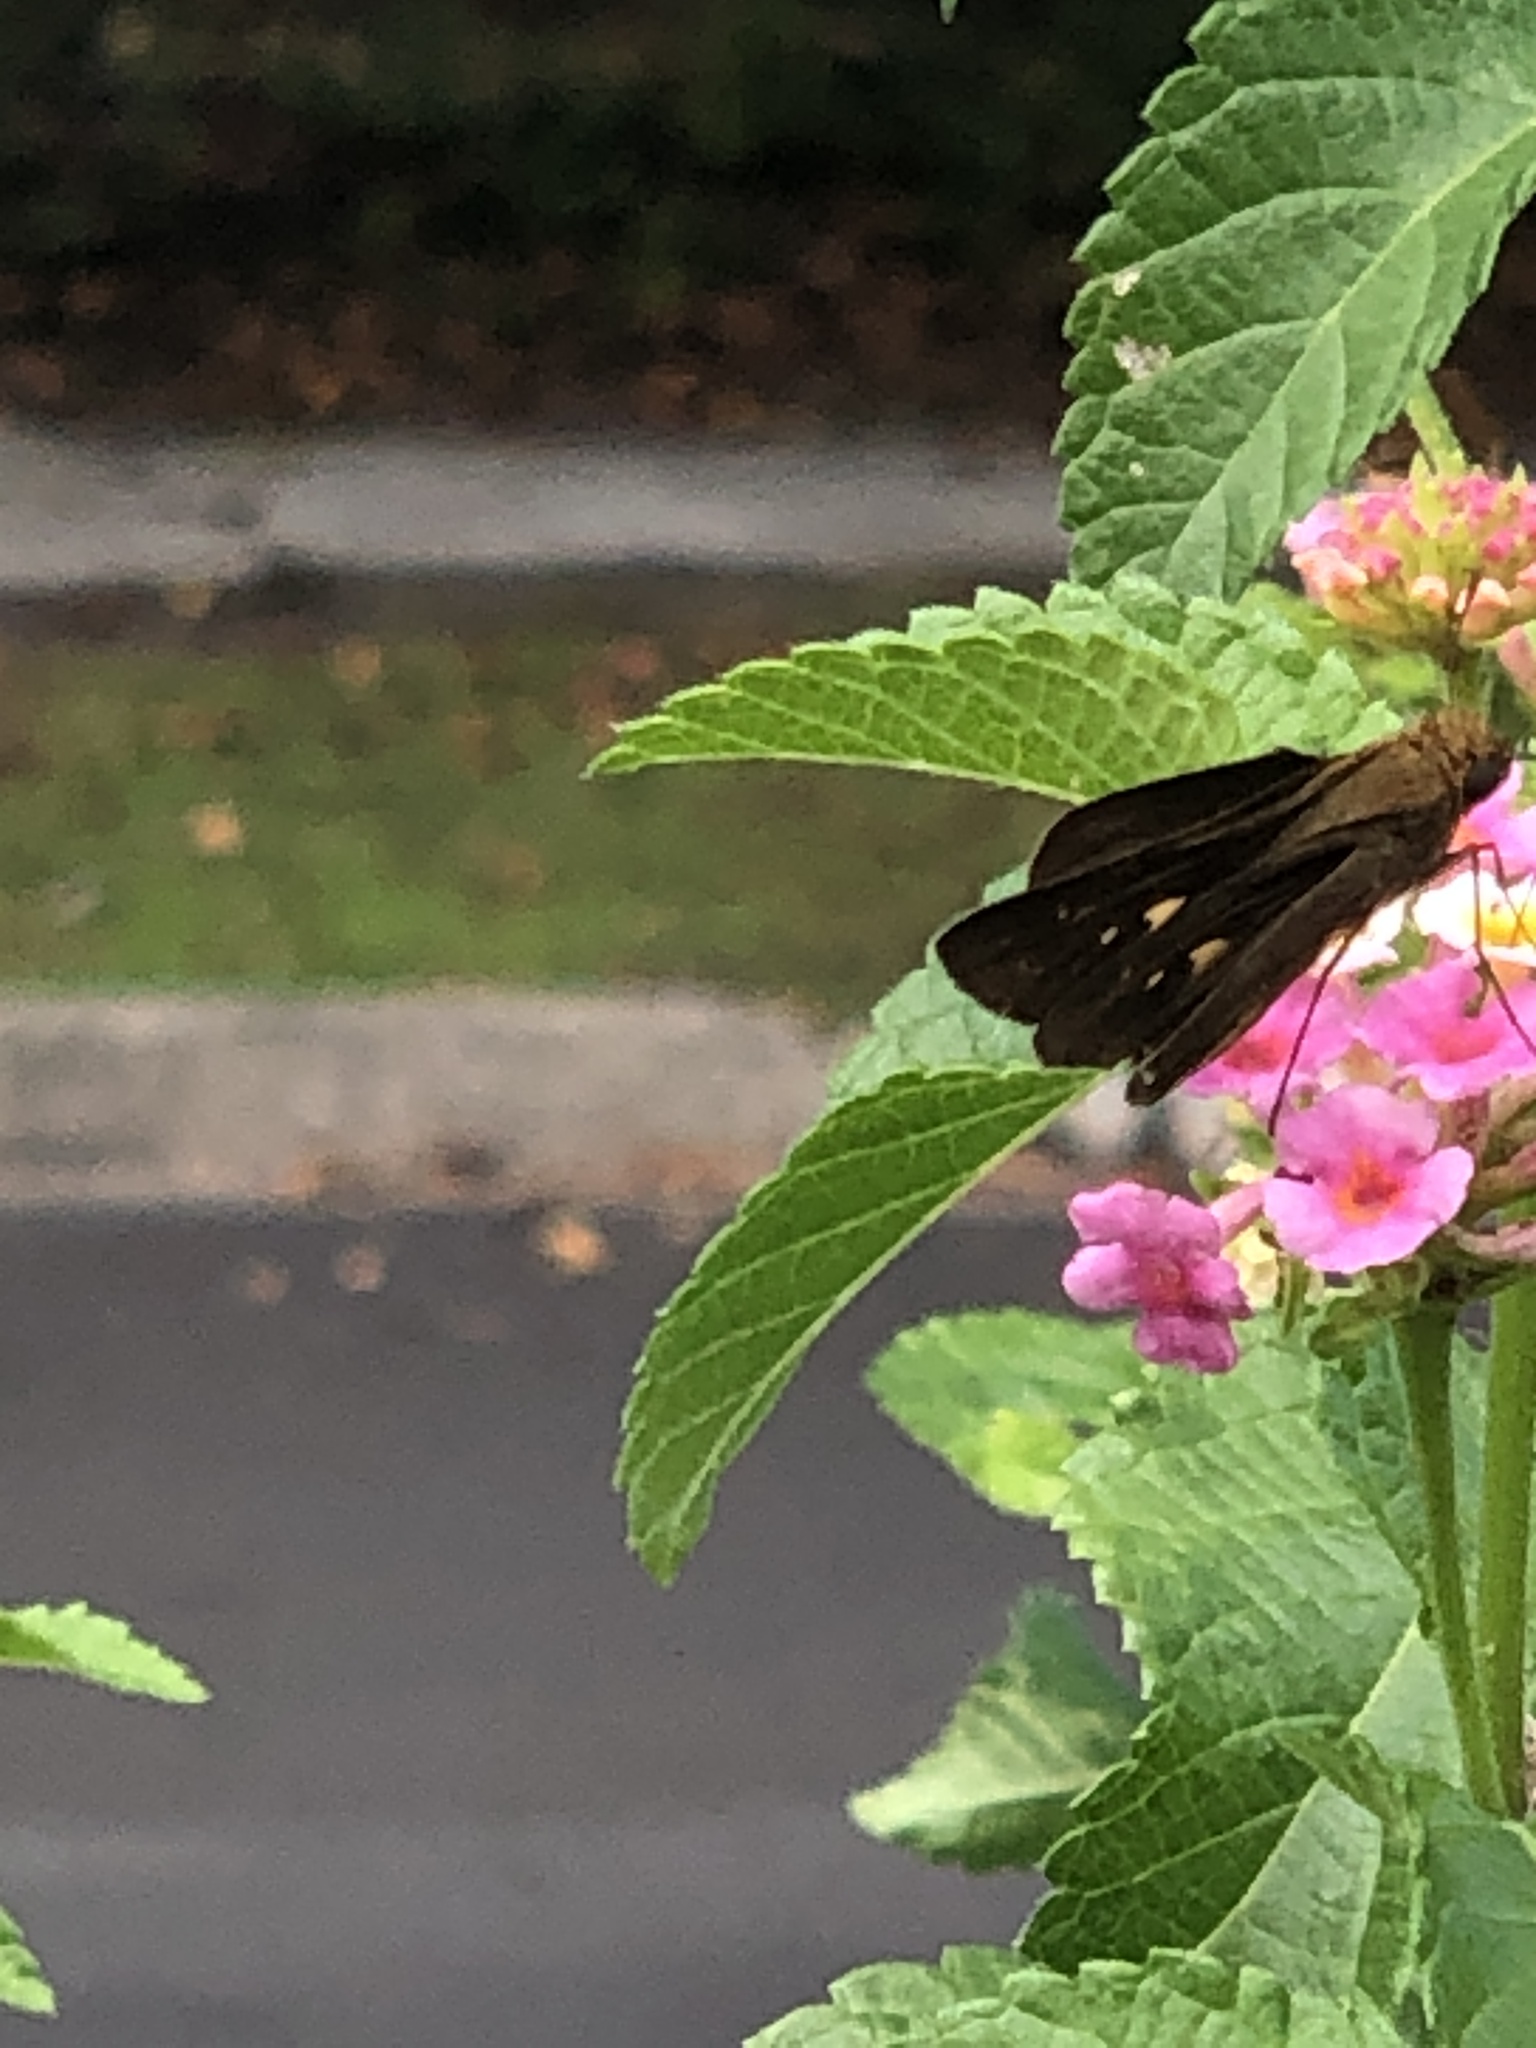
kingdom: Animalia
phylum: Arthropoda
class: Insecta
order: Lepidoptera
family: Hesperiidae
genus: Panoquina
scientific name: Panoquina ocola
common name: Ocola skipper
